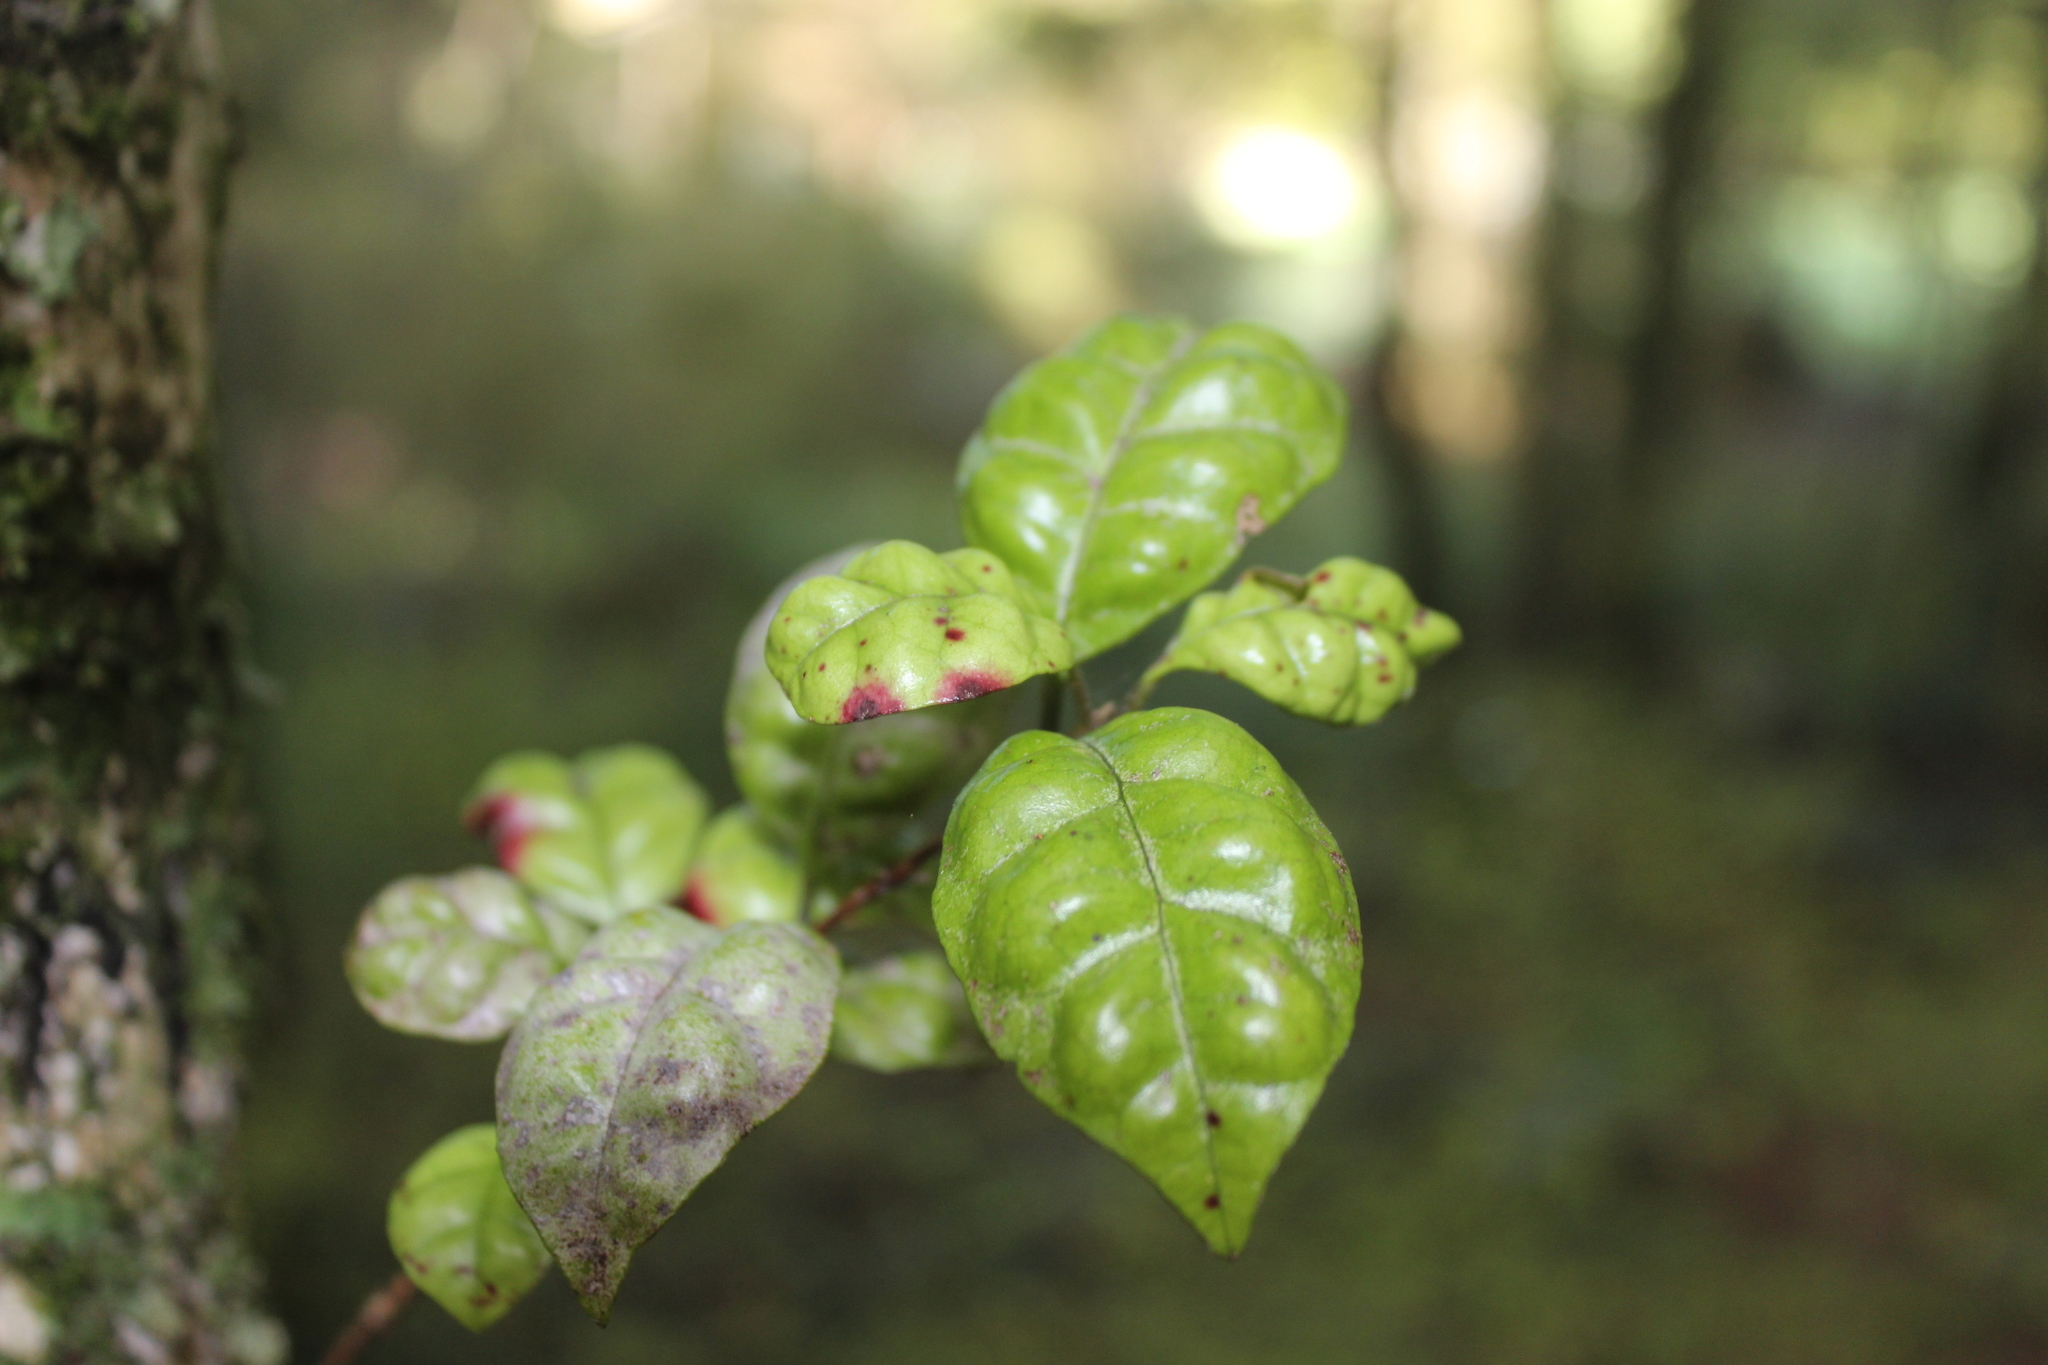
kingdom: Plantae
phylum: Tracheophyta
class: Magnoliopsida
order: Myrtales
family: Myrtaceae
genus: Lophomyrtus
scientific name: Lophomyrtus bullata
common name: Rama rama
